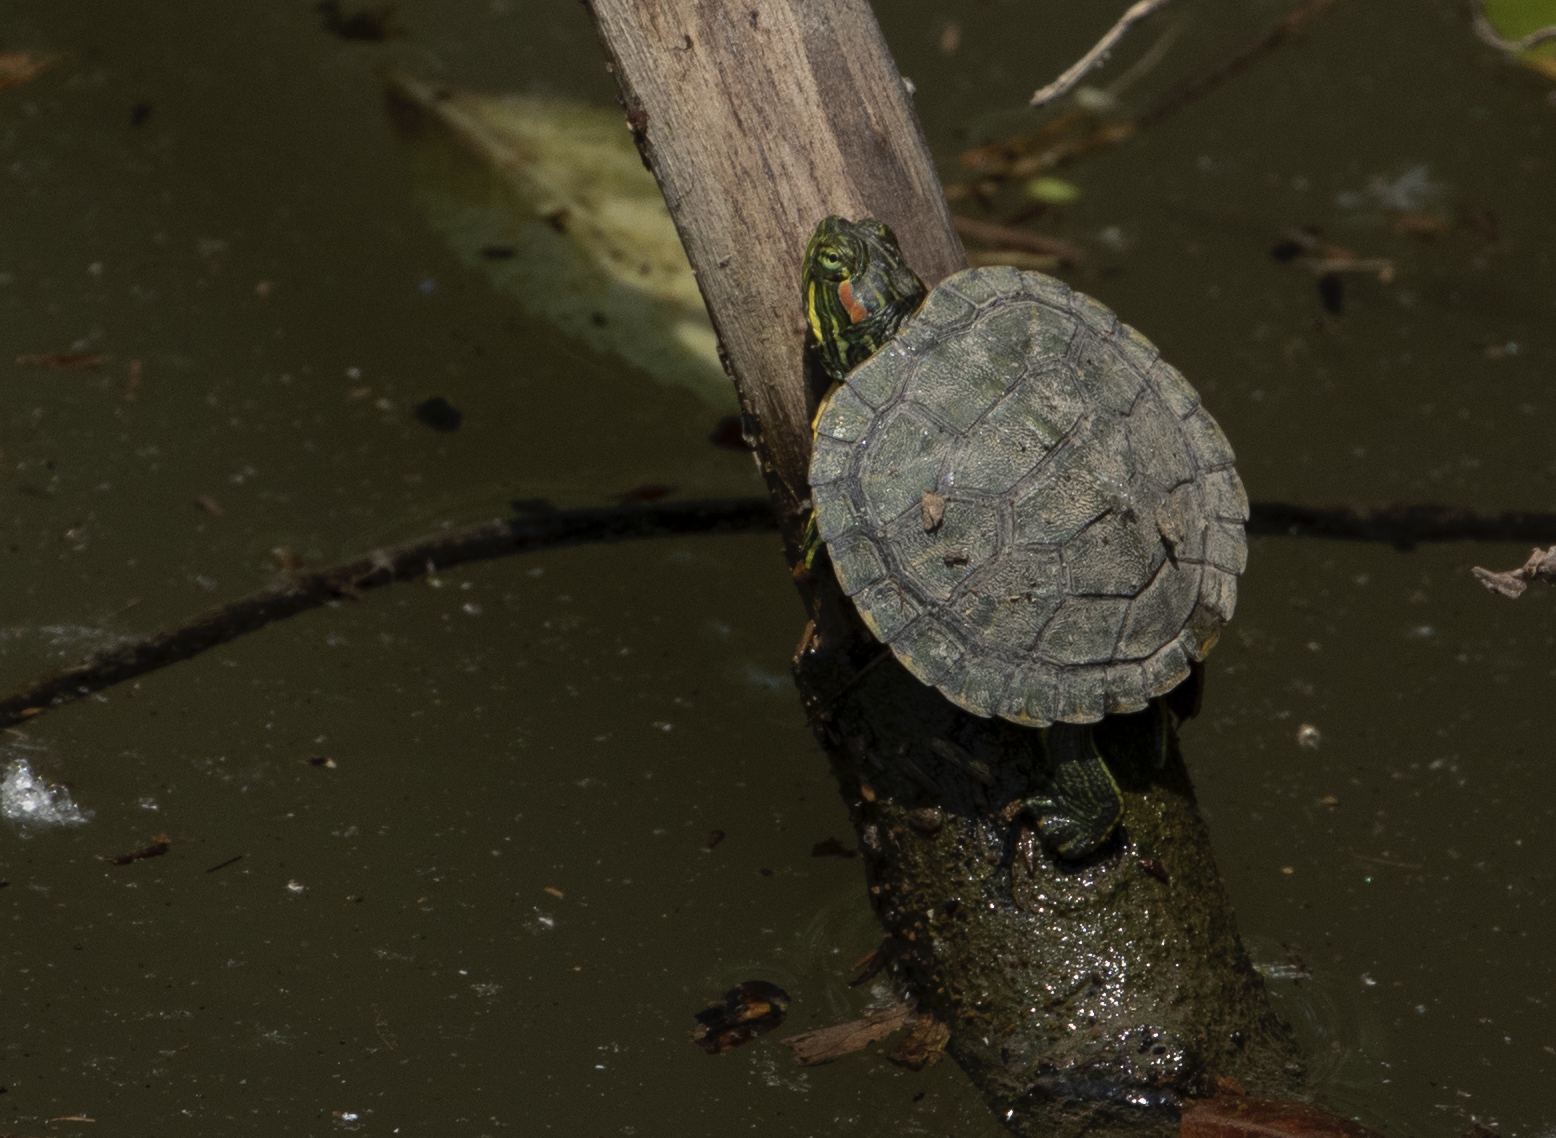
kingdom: Animalia
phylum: Chordata
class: Testudines
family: Emydidae
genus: Trachemys
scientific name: Trachemys scripta
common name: Slider
